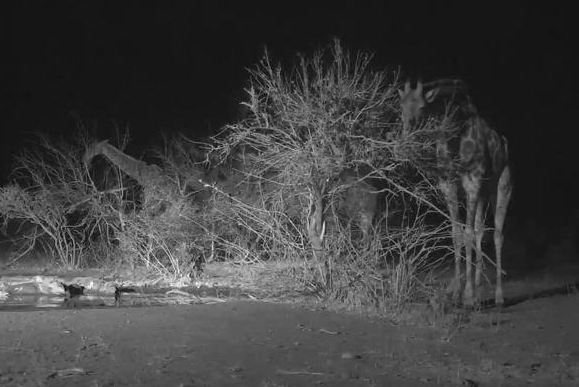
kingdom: Animalia
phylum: Chordata
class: Mammalia
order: Artiodactyla
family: Giraffidae
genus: Giraffa
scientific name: Giraffa giraffa
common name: Southern giraffe
